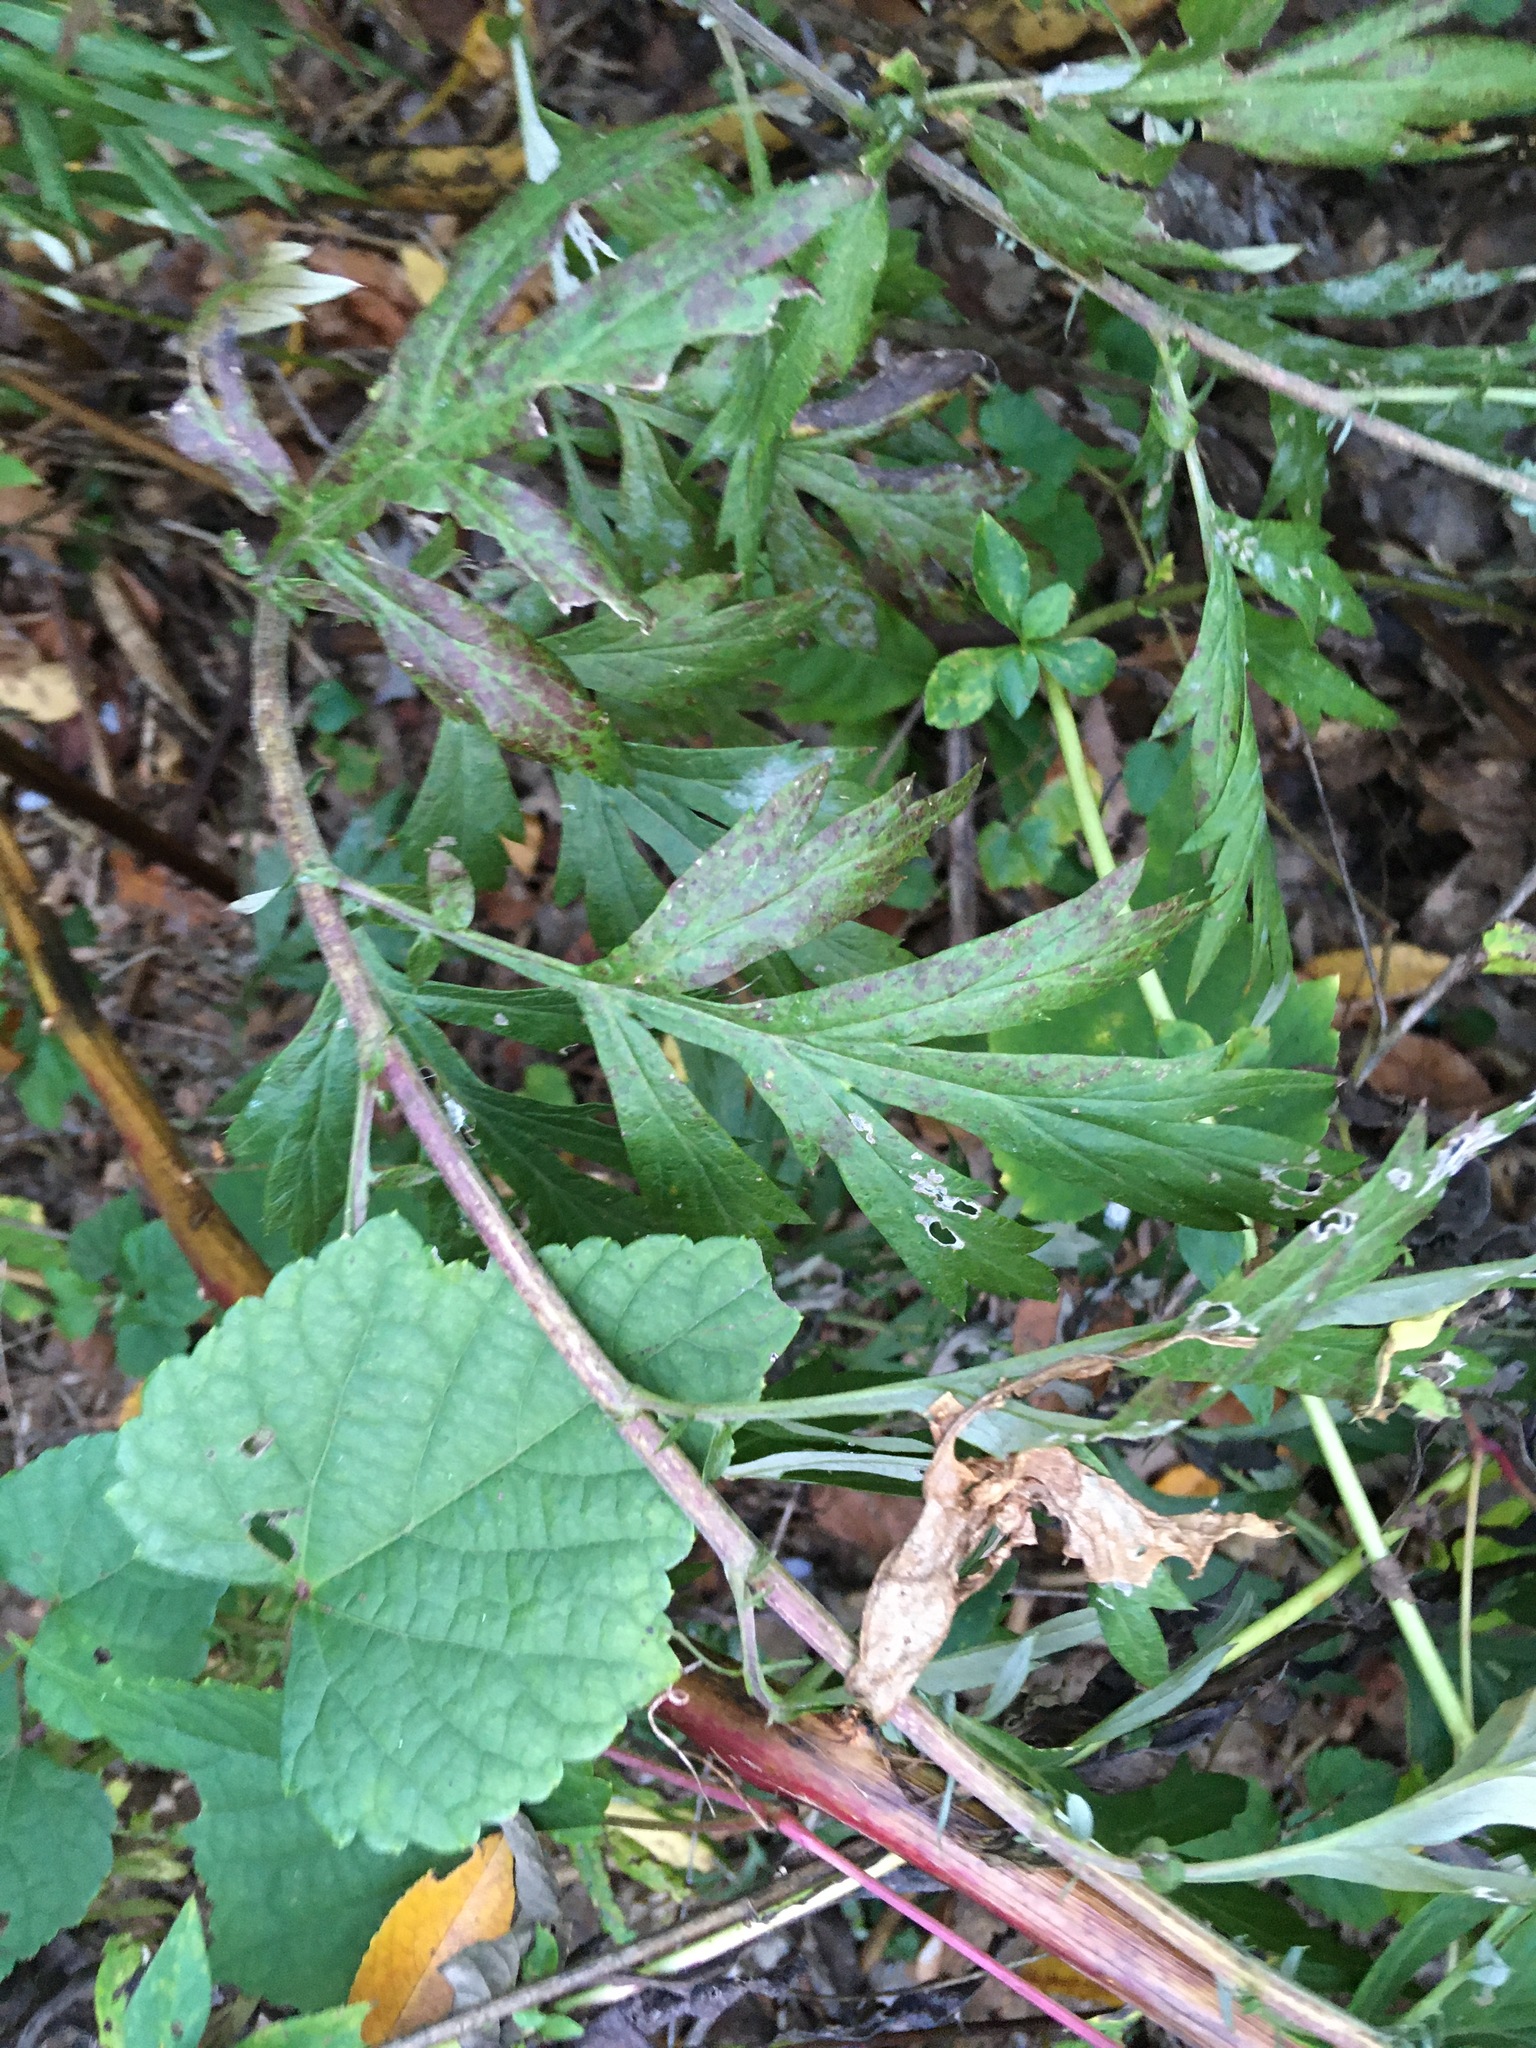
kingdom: Plantae
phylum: Tracheophyta
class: Magnoliopsida
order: Asterales
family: Asteraceae
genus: Artemisia
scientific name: Artemisia vulgaris
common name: Mugwort
